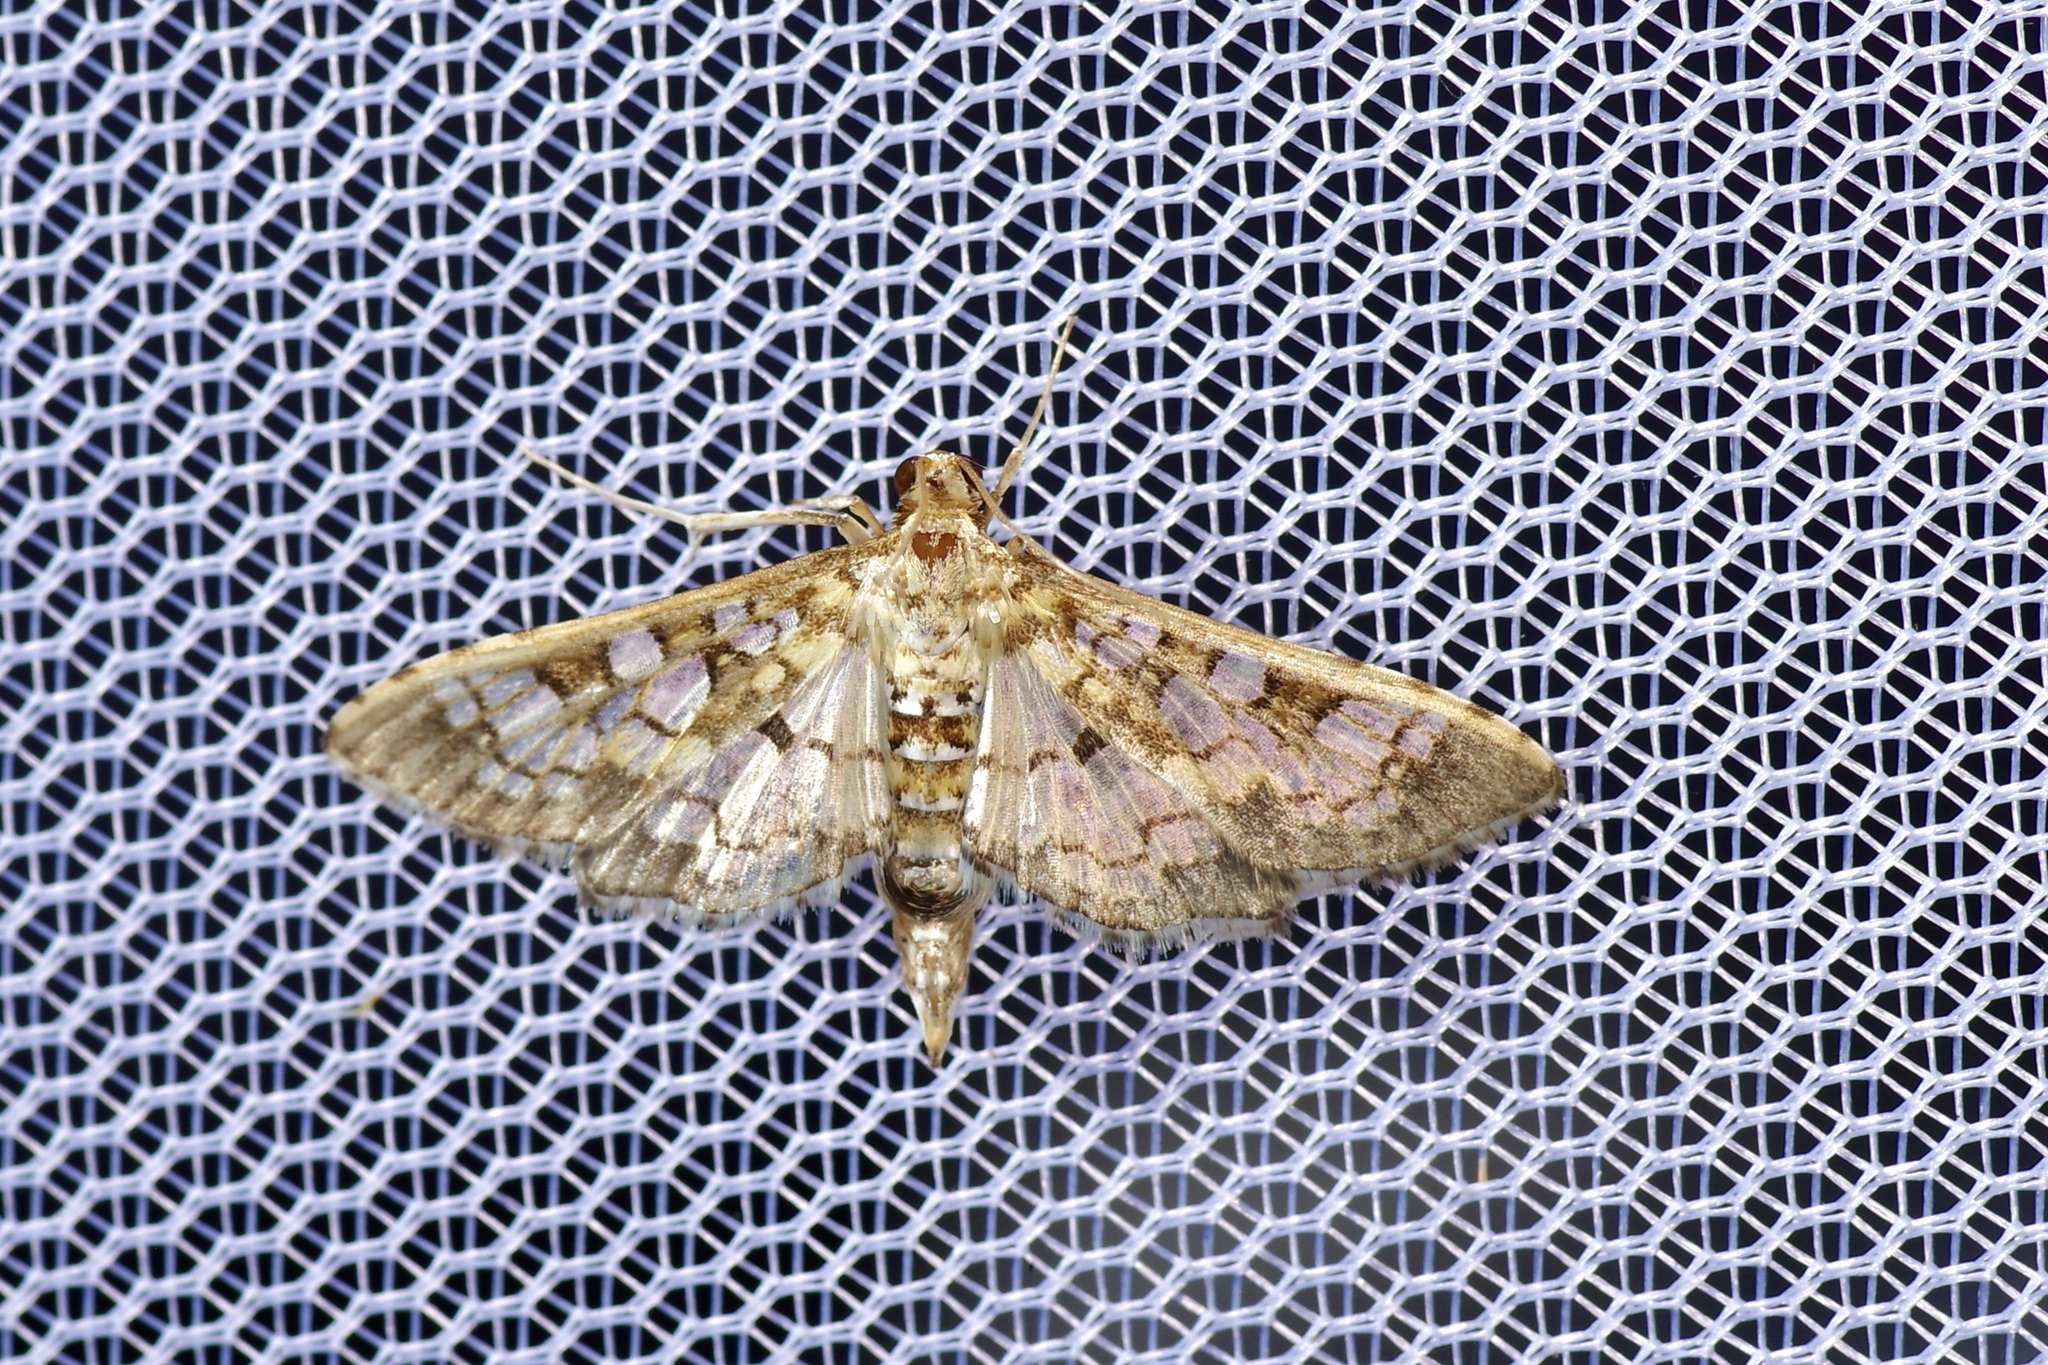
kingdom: Animalia
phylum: Arthropoda
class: Insecta
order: Lepidoptera
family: Crambidae
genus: Samea
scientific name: Samea ecclesialis
